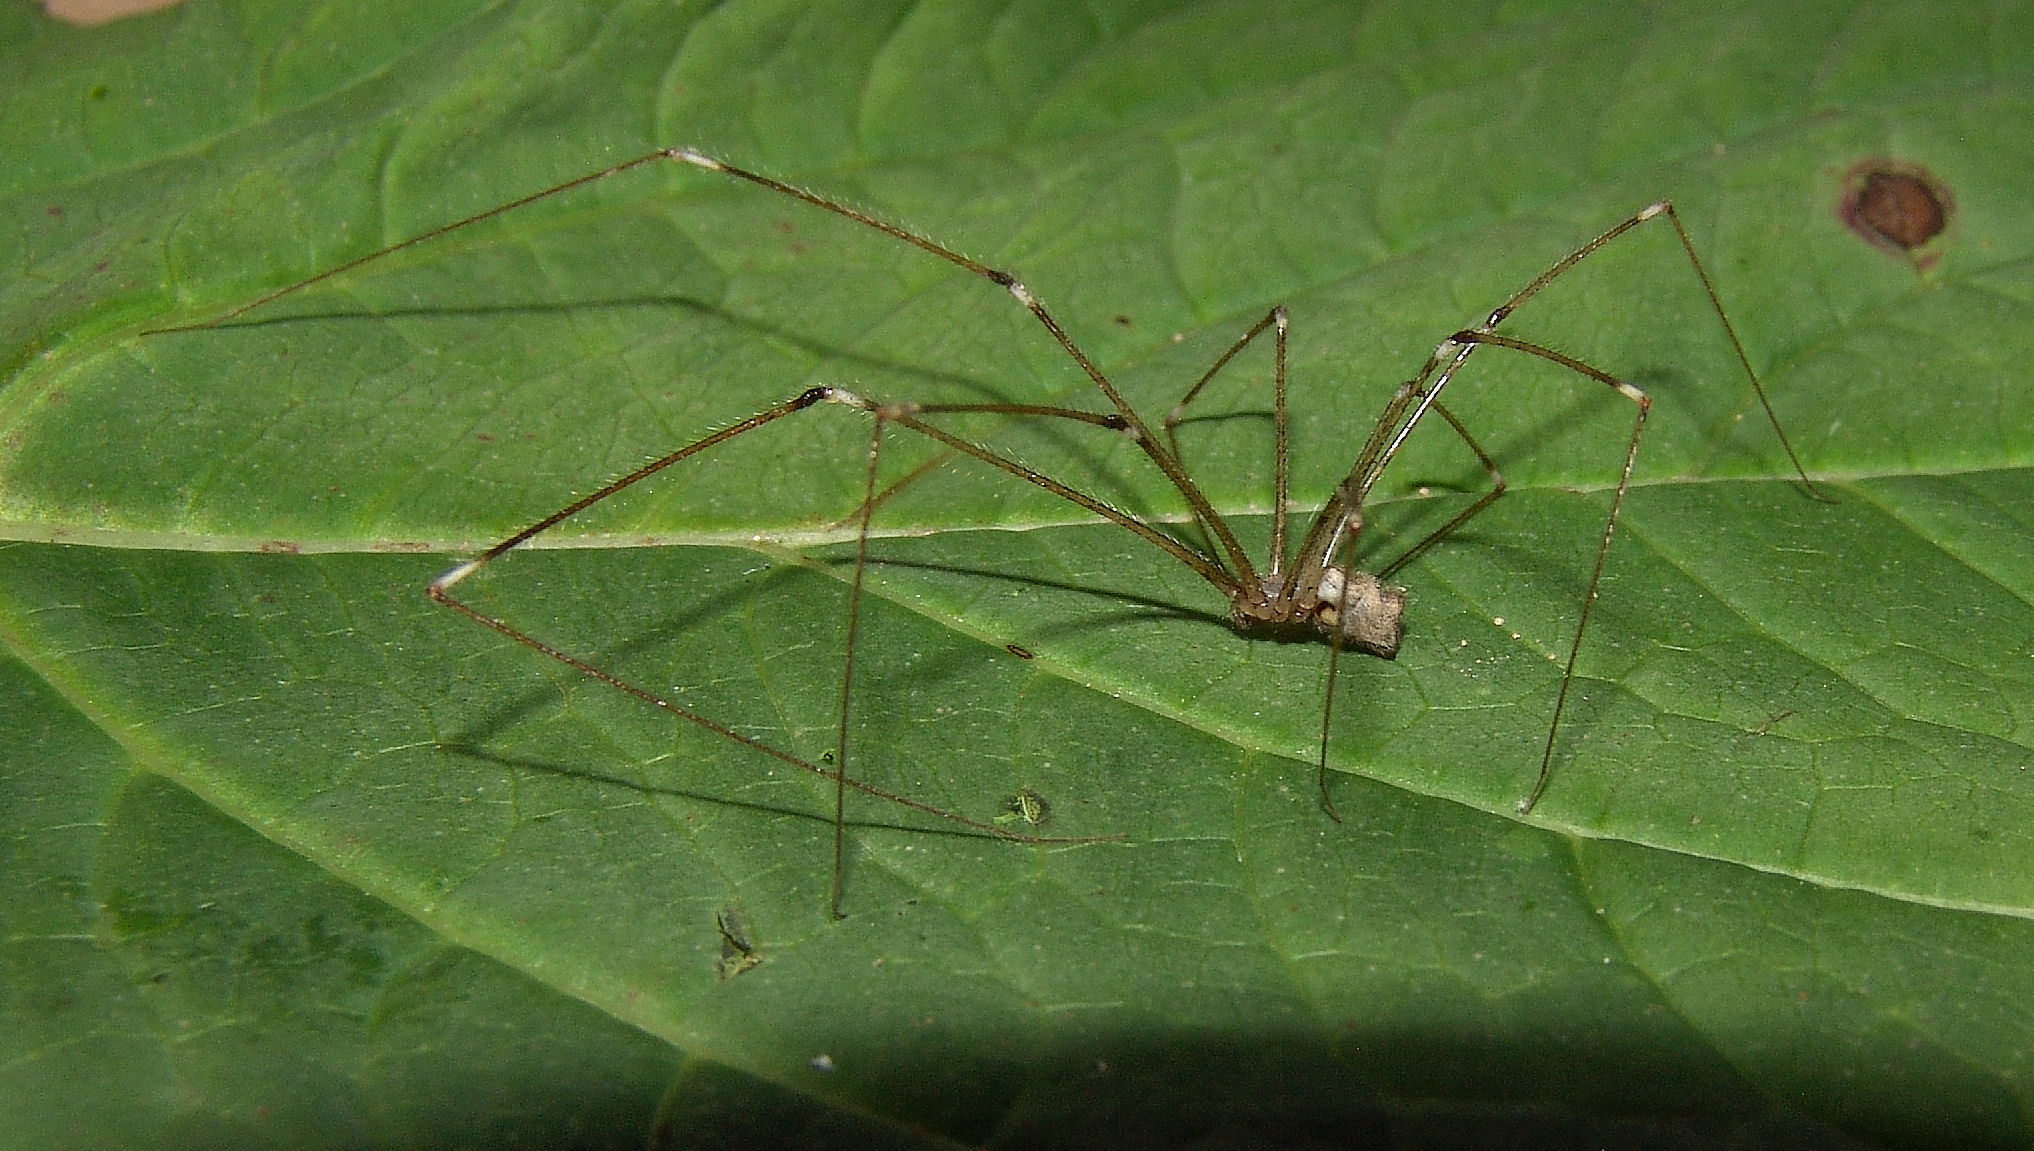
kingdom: Animalia
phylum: Arthropoda
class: Arachnida
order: Araneae
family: Pholcidae
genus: Crossopriza
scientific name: Crossopriza lyoni
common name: Cellar spiders
